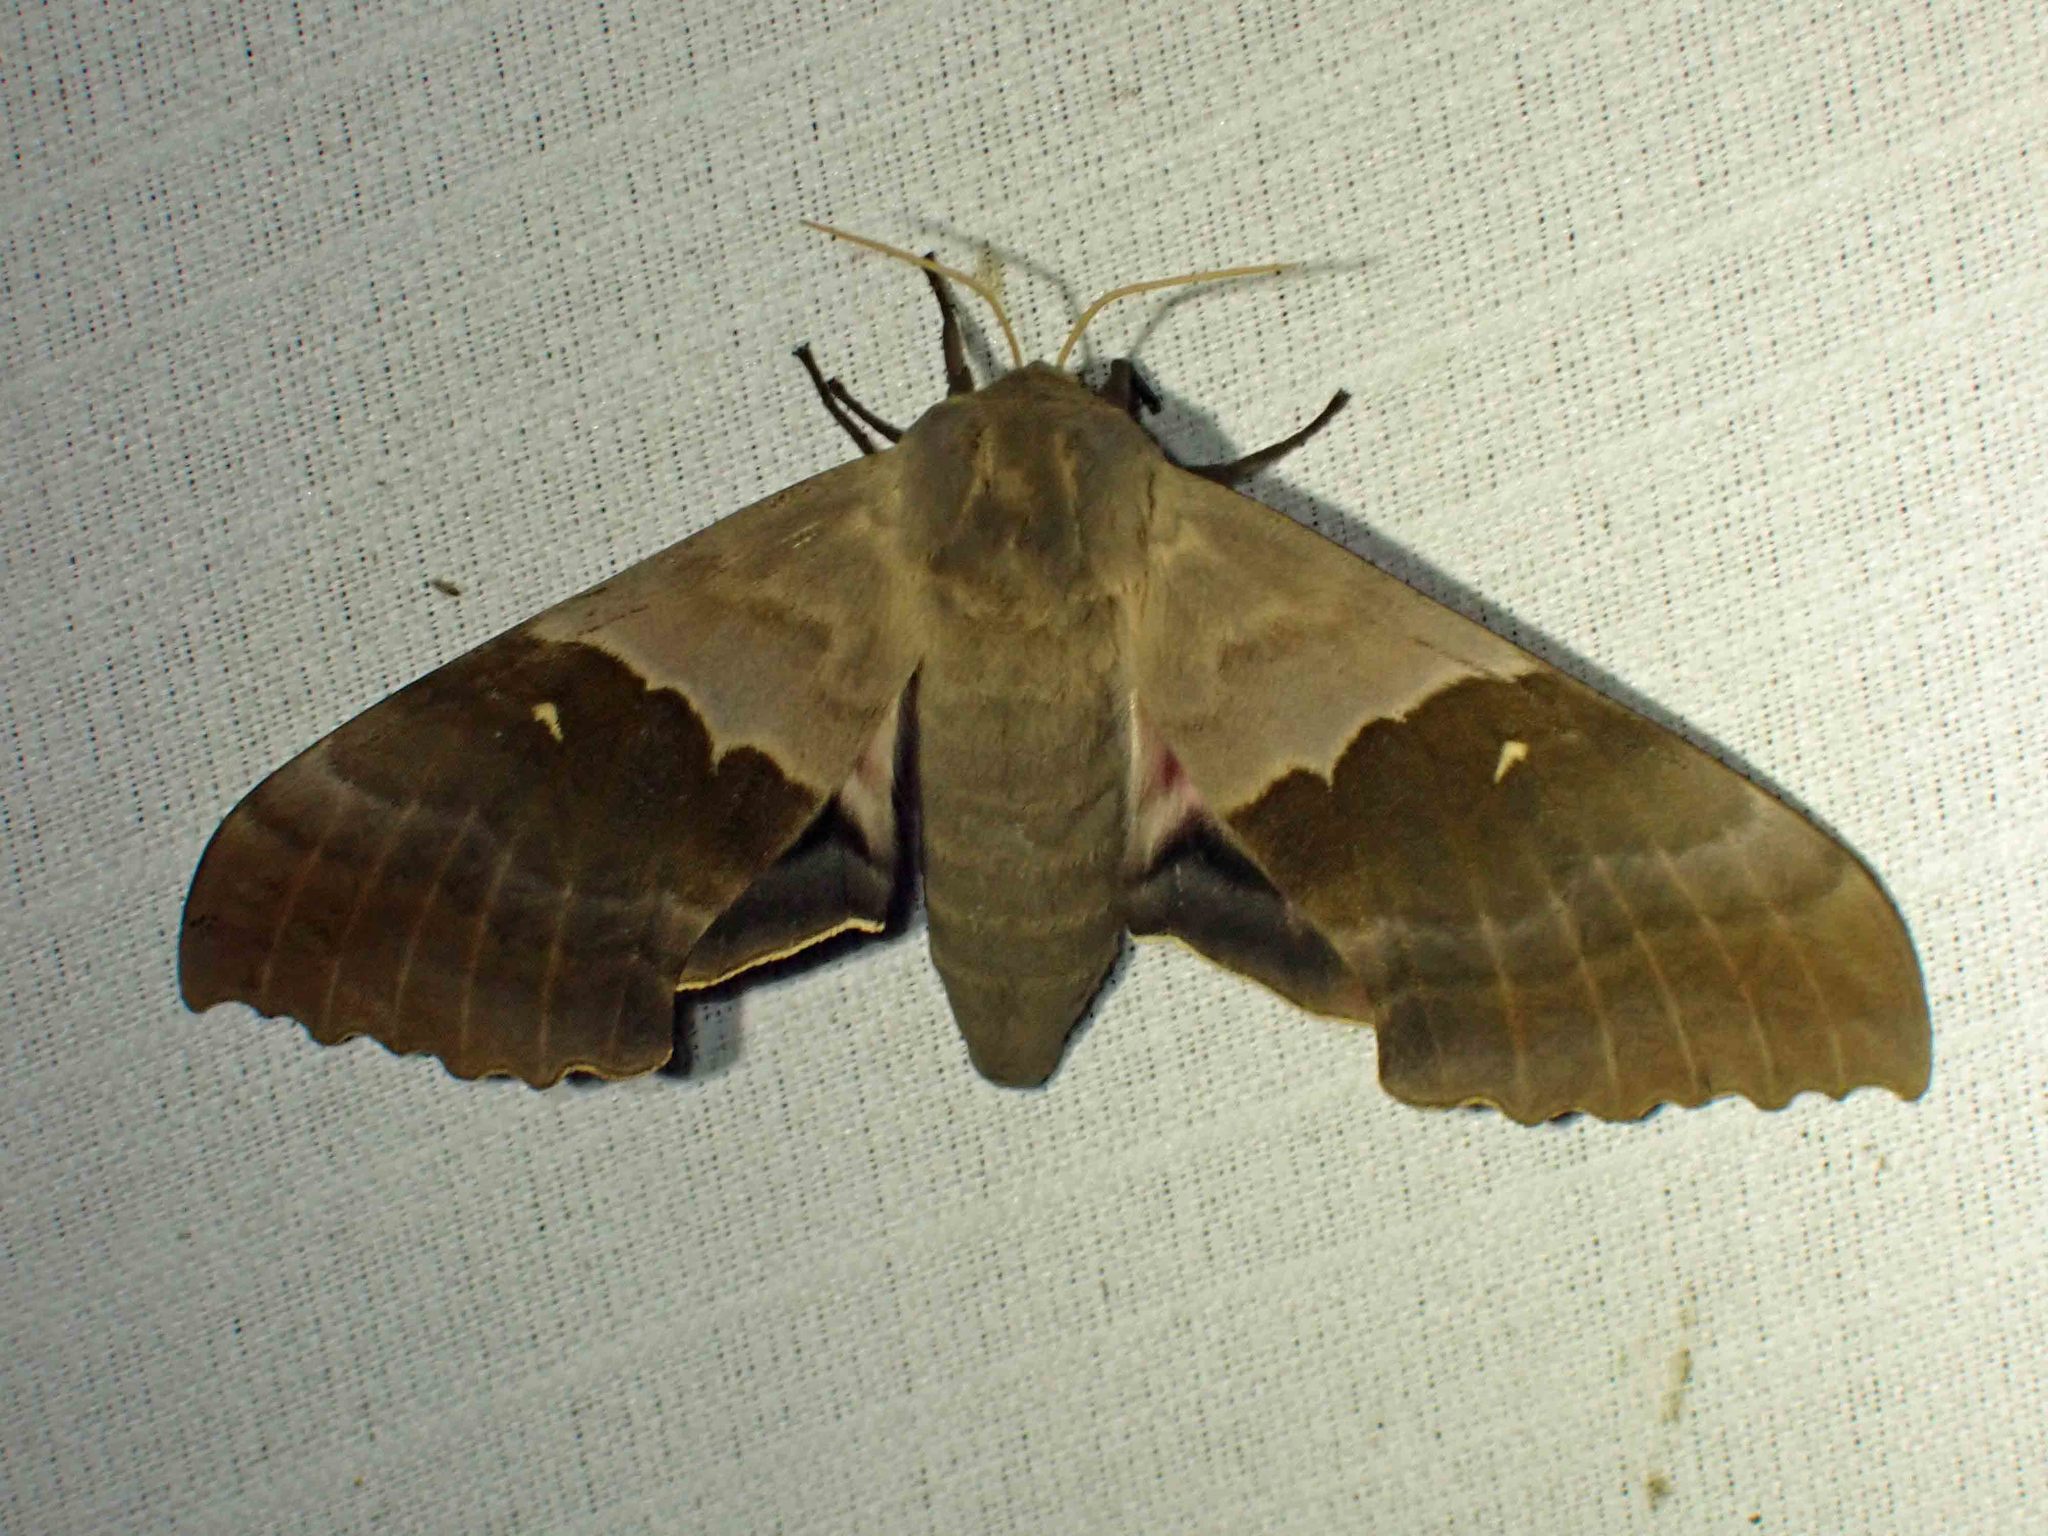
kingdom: Animalia
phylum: Arthropoda
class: Insecta
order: Lepidoptera
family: Sphingidae
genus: Pachysphinx
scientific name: Pachysphinx modesta
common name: Big poplar sphinx
